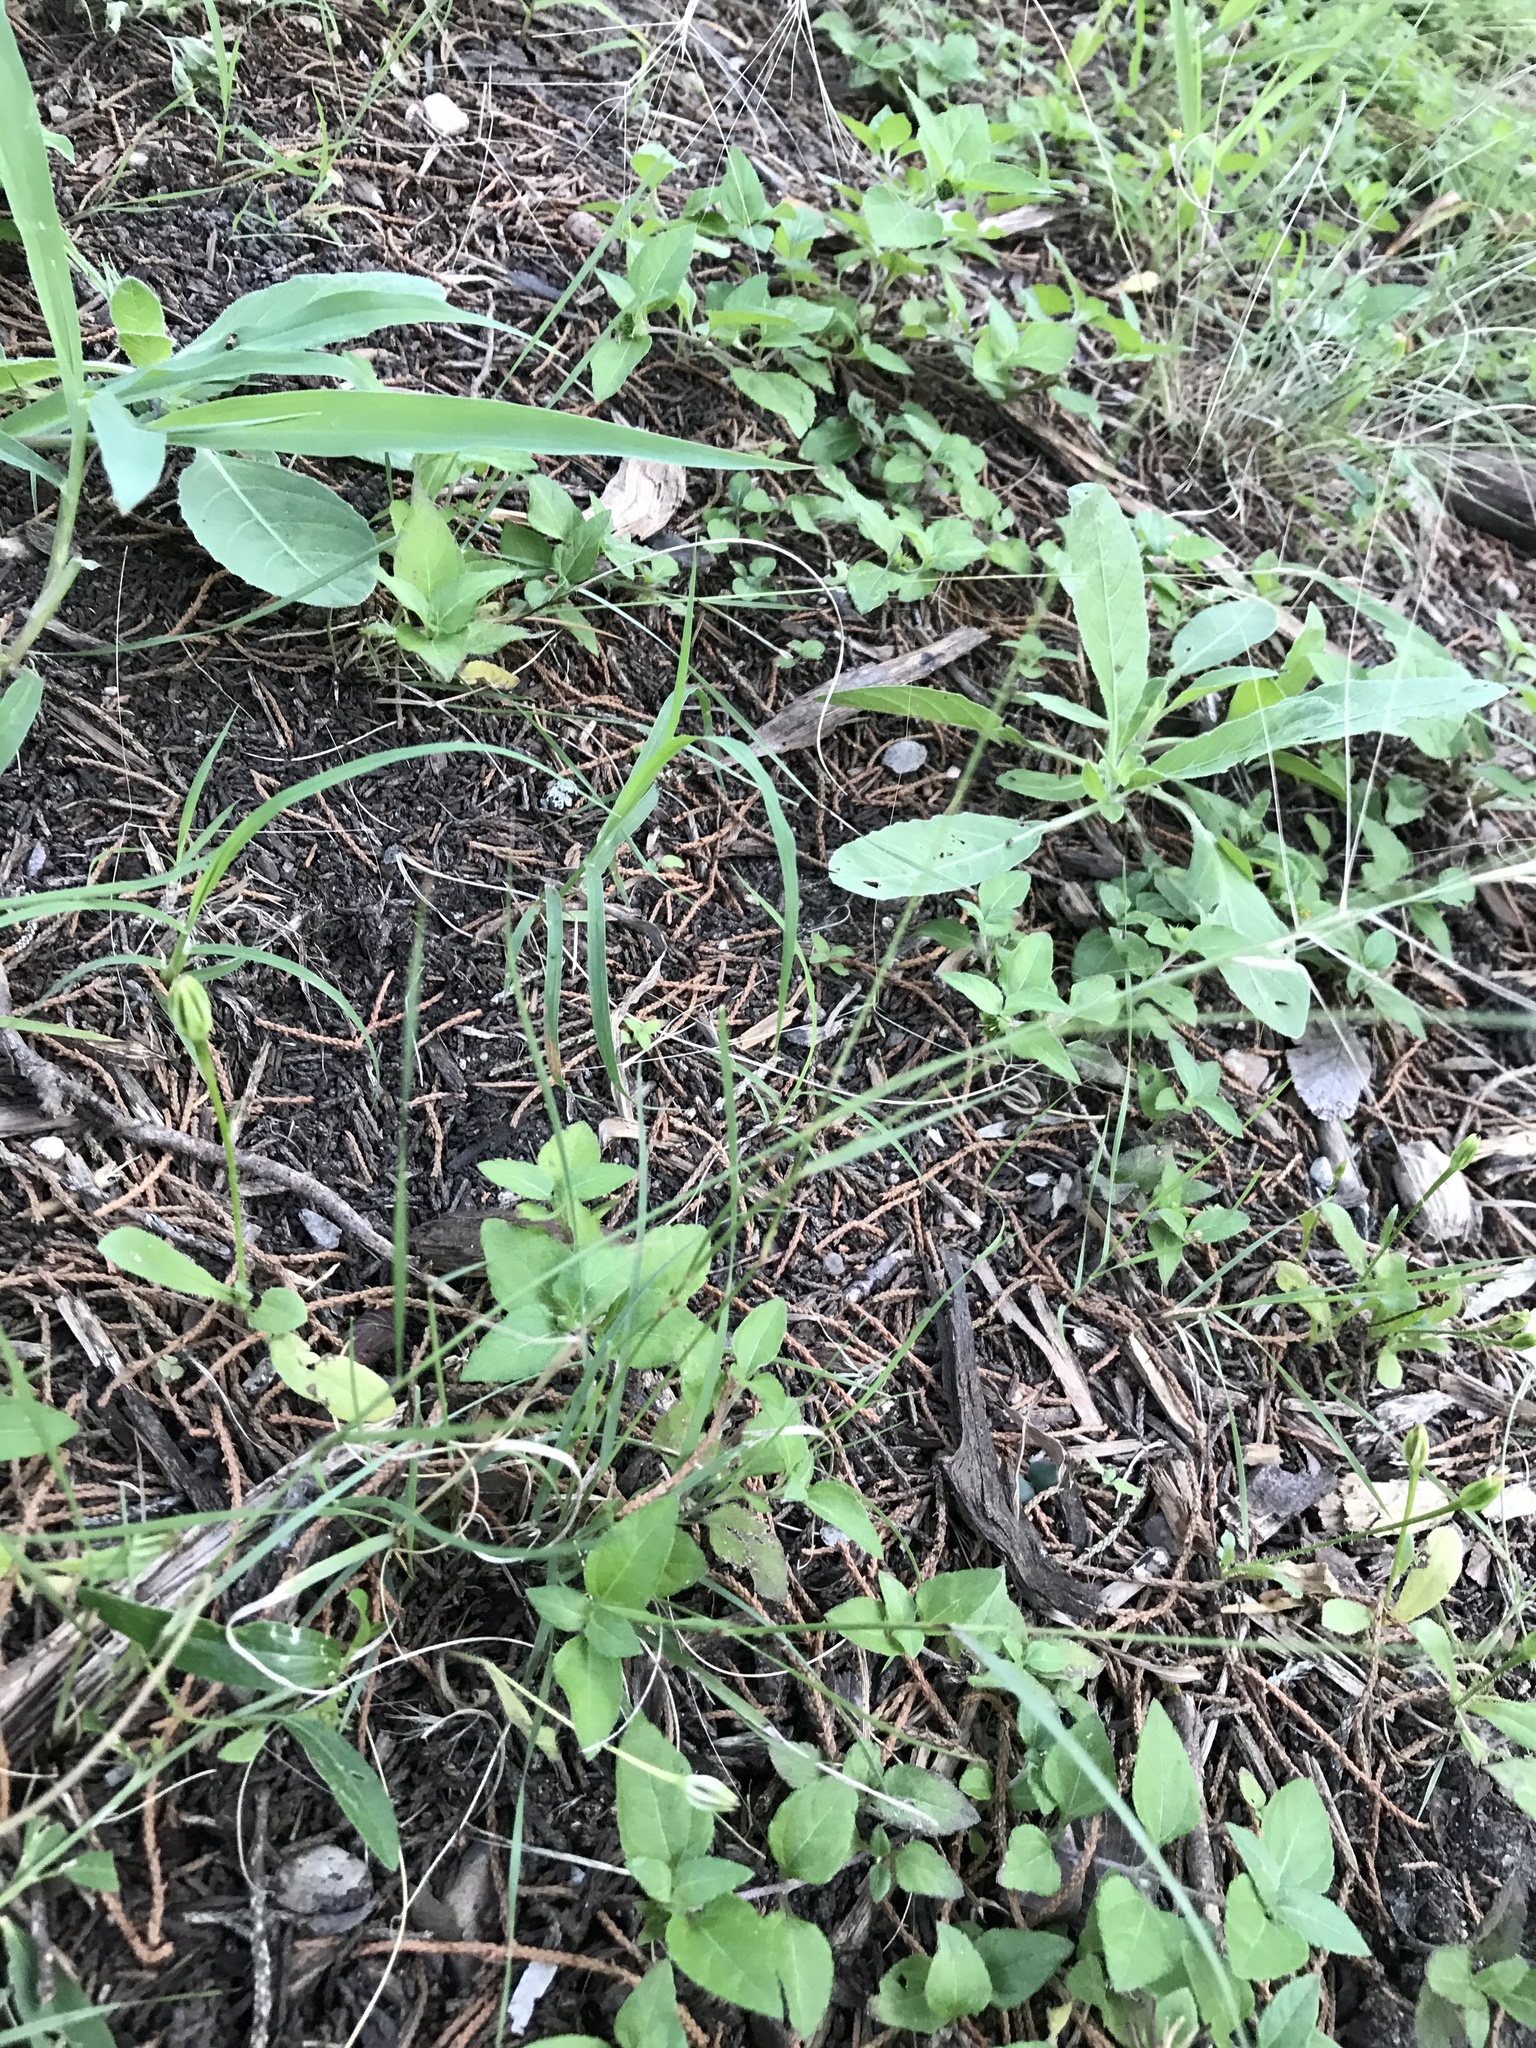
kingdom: Plantae
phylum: Tracheophyta
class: Liliopsida
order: Poales
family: Poaceae
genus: Bouteloua
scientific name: Bouteloua rigidiseta
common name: Texas grama
